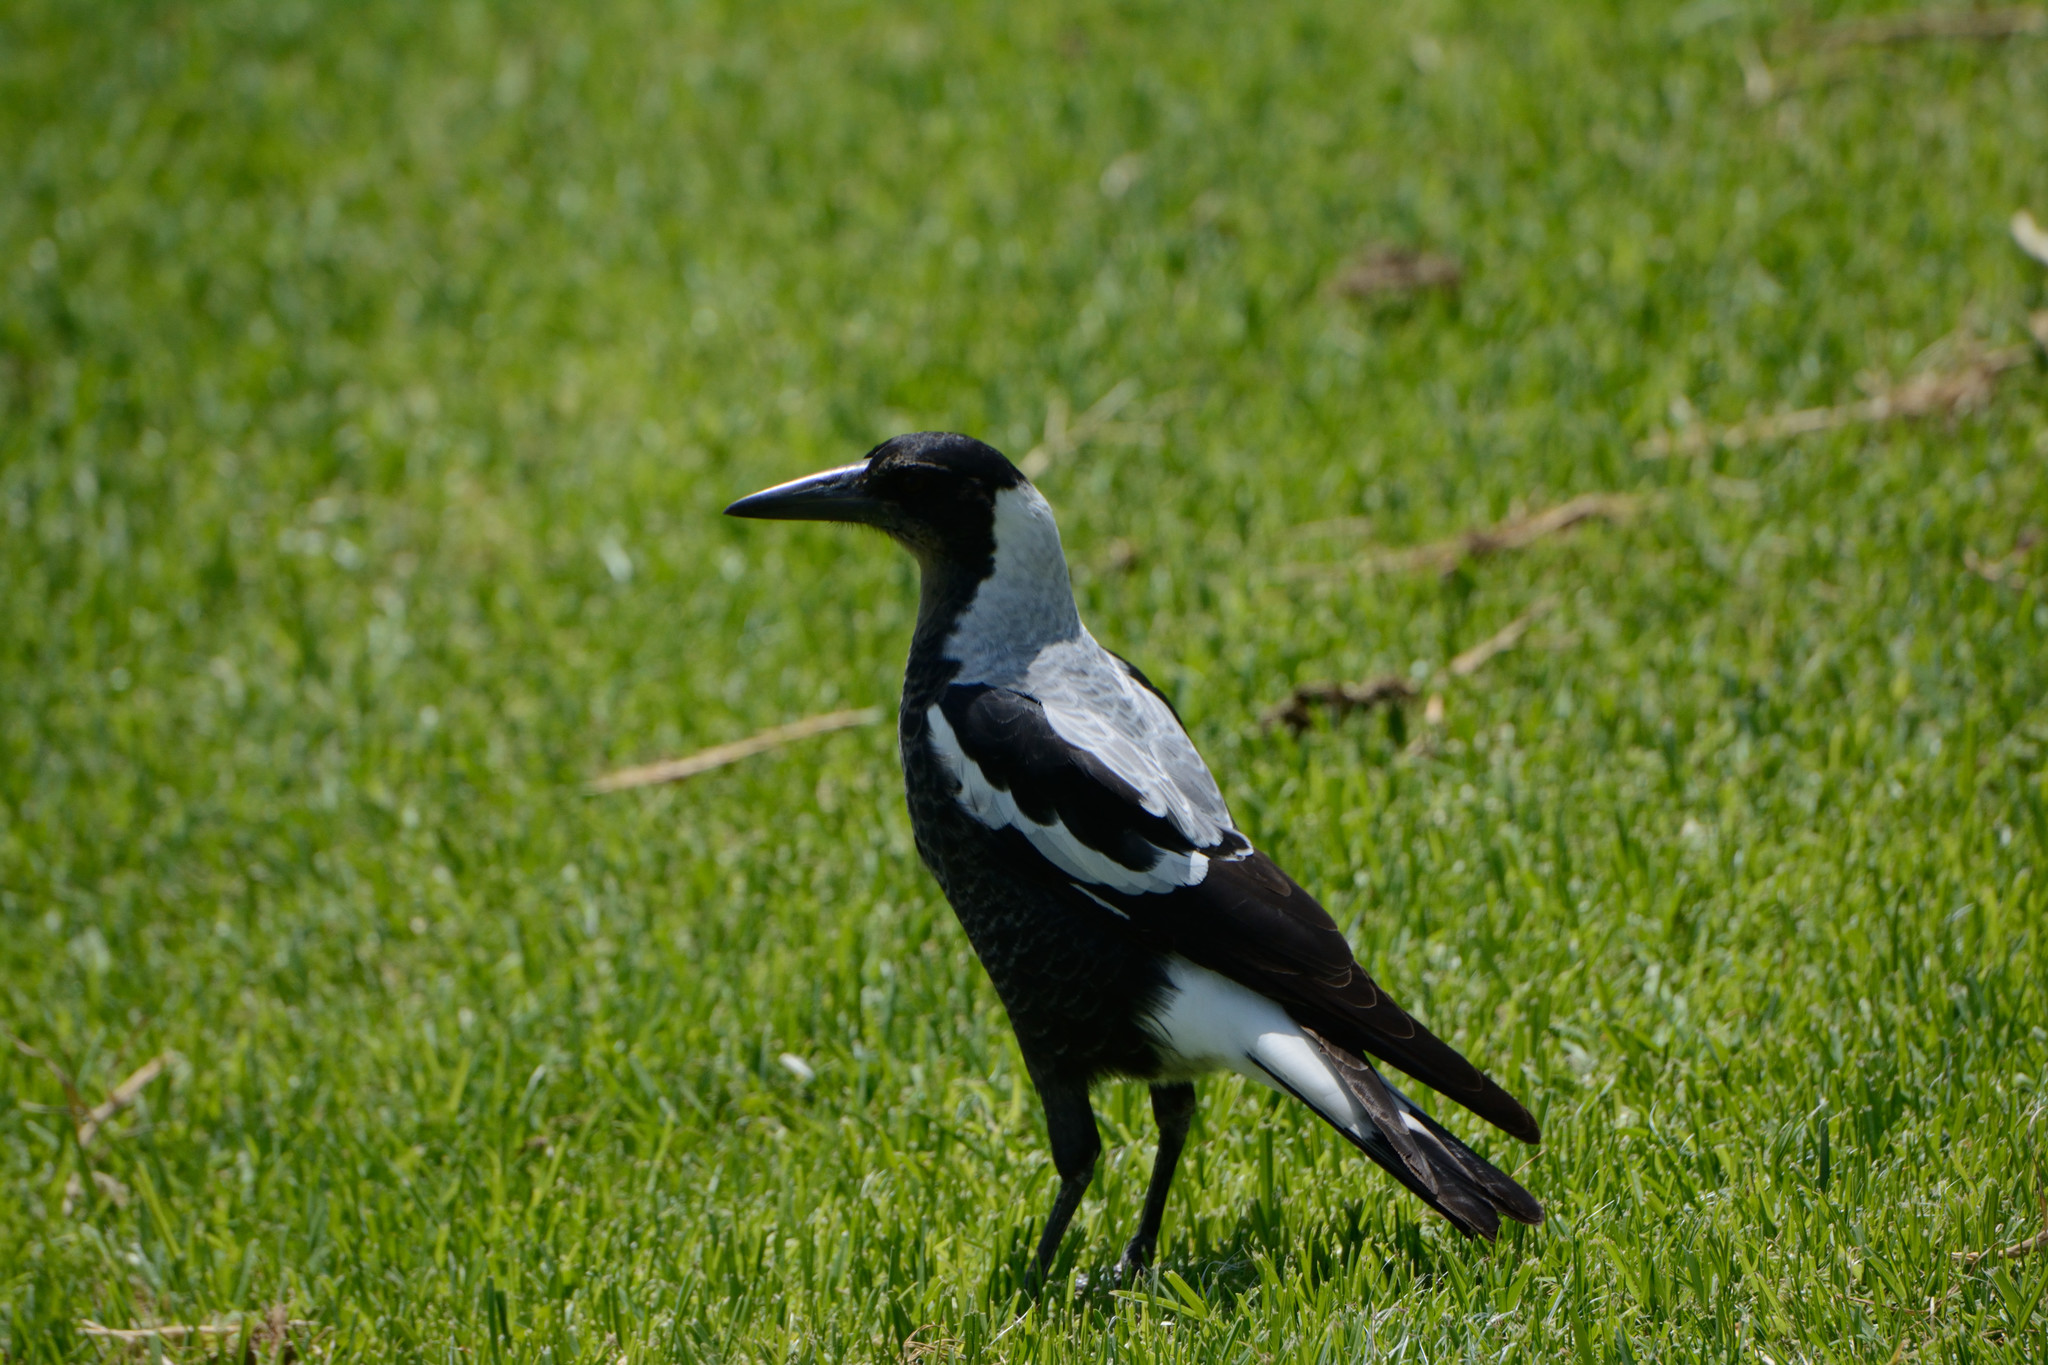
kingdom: Animalia
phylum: Chordata
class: Aves
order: Passeriformes
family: Cracticidae
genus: Gymnorhina
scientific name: Gymnorhina tibicen
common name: Australian magpie
